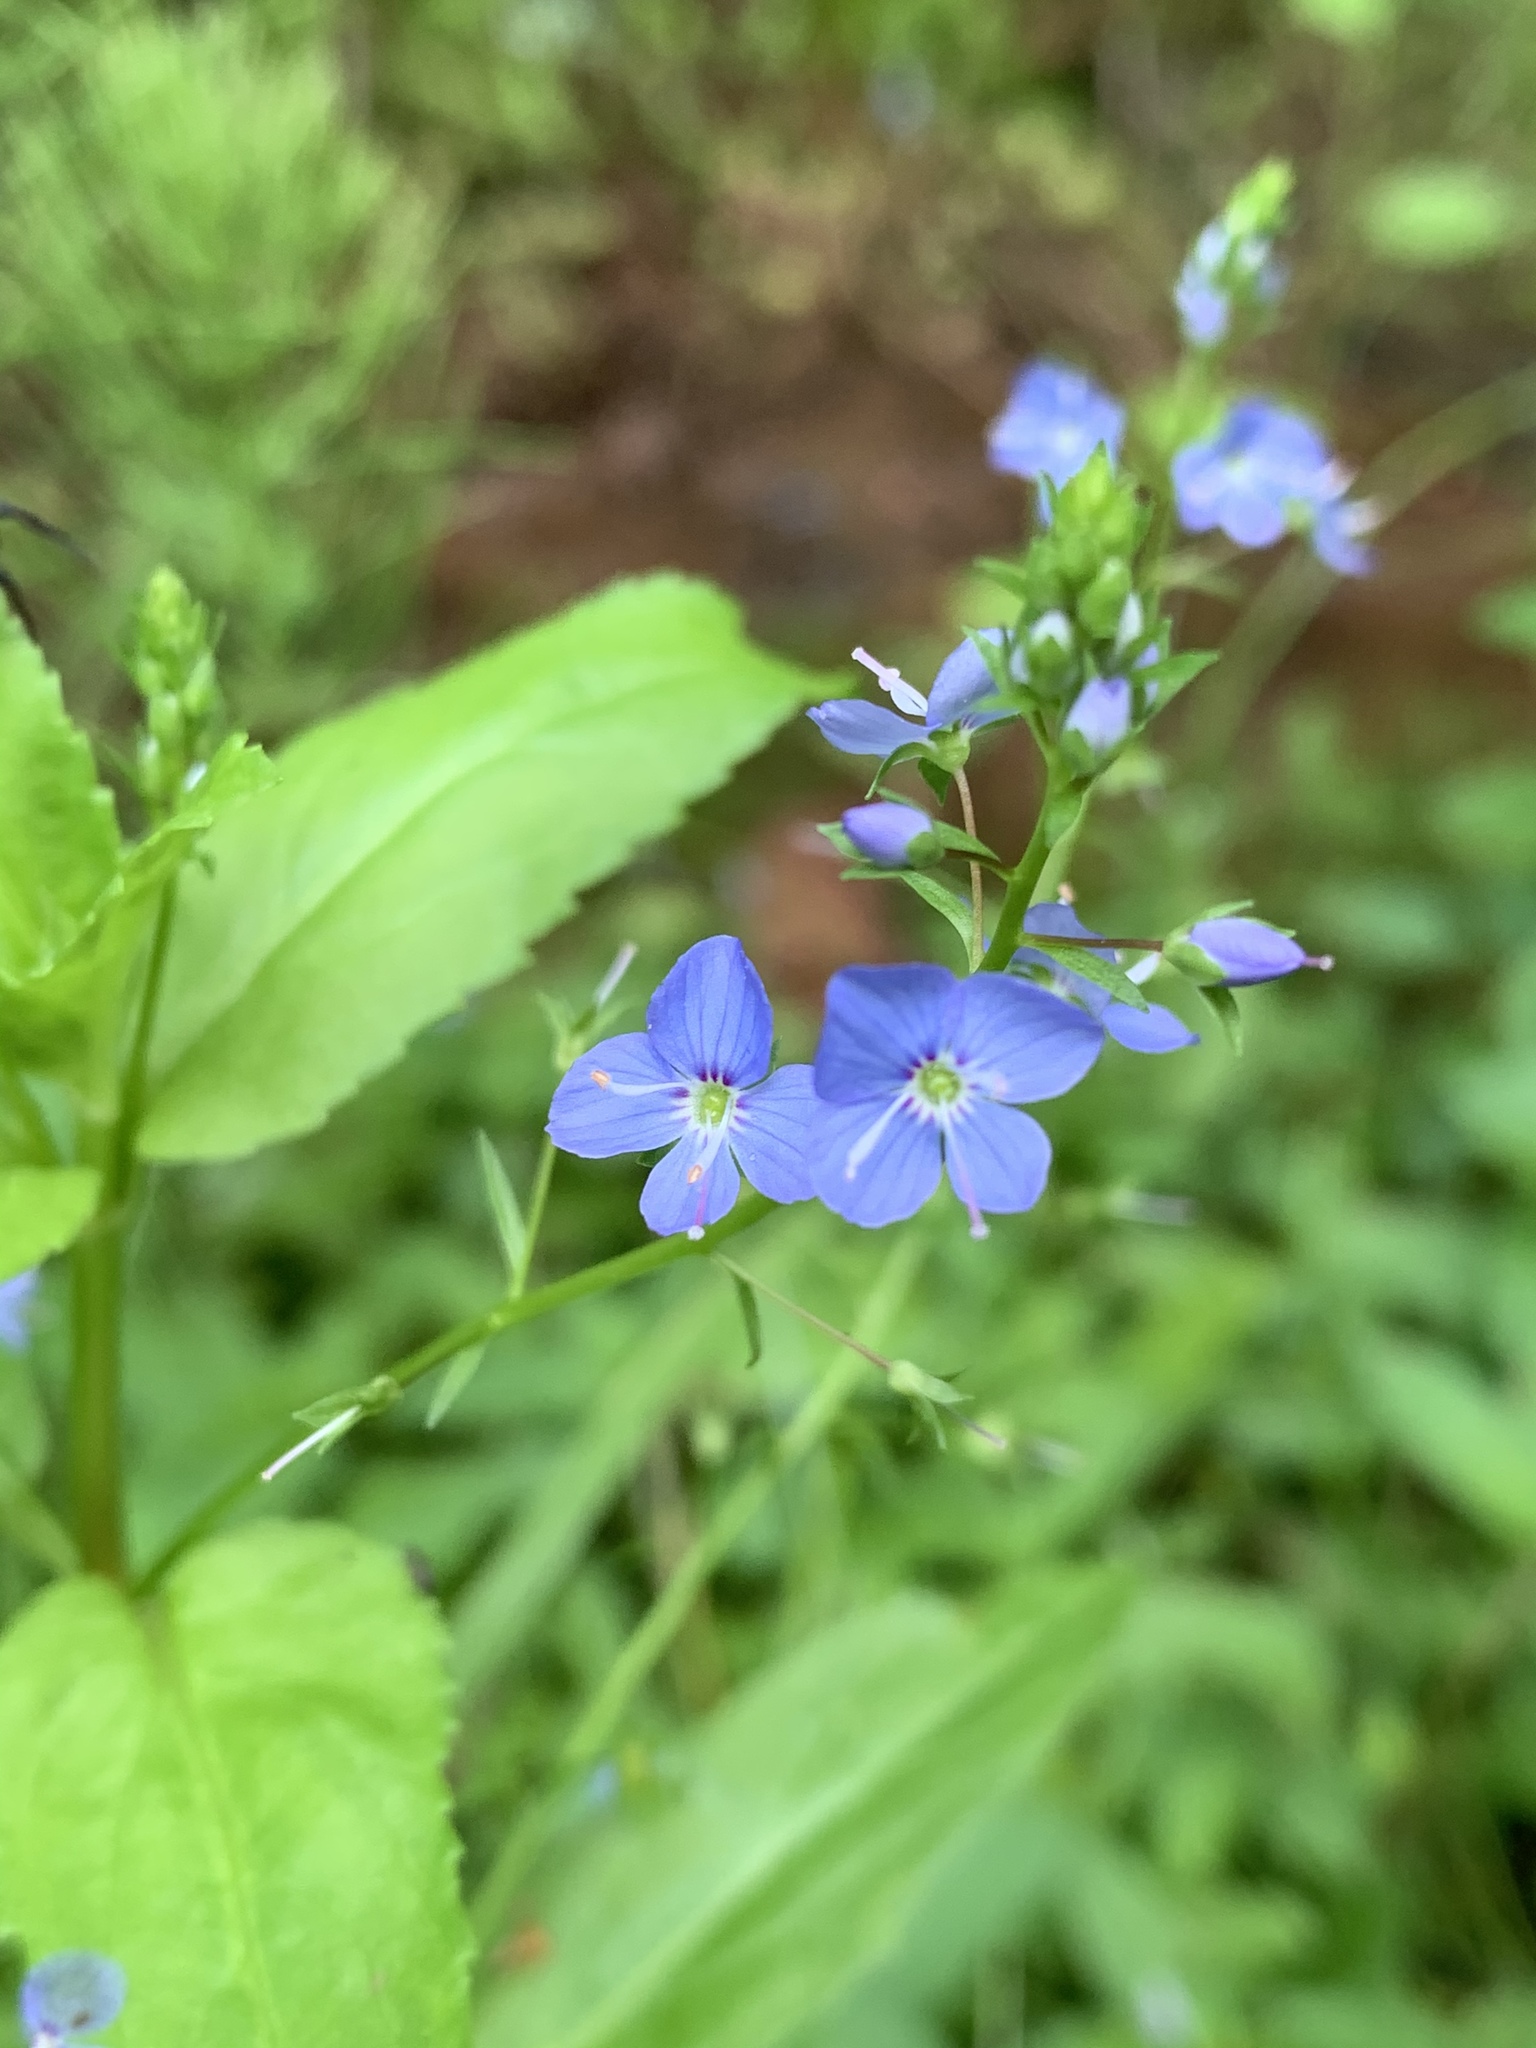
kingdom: Plantae
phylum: Tracheophyta
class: Magnoliopsida
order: Lamiales
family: Plantaginaceae
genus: Veronica
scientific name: Veronica americana
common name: American brooklime
